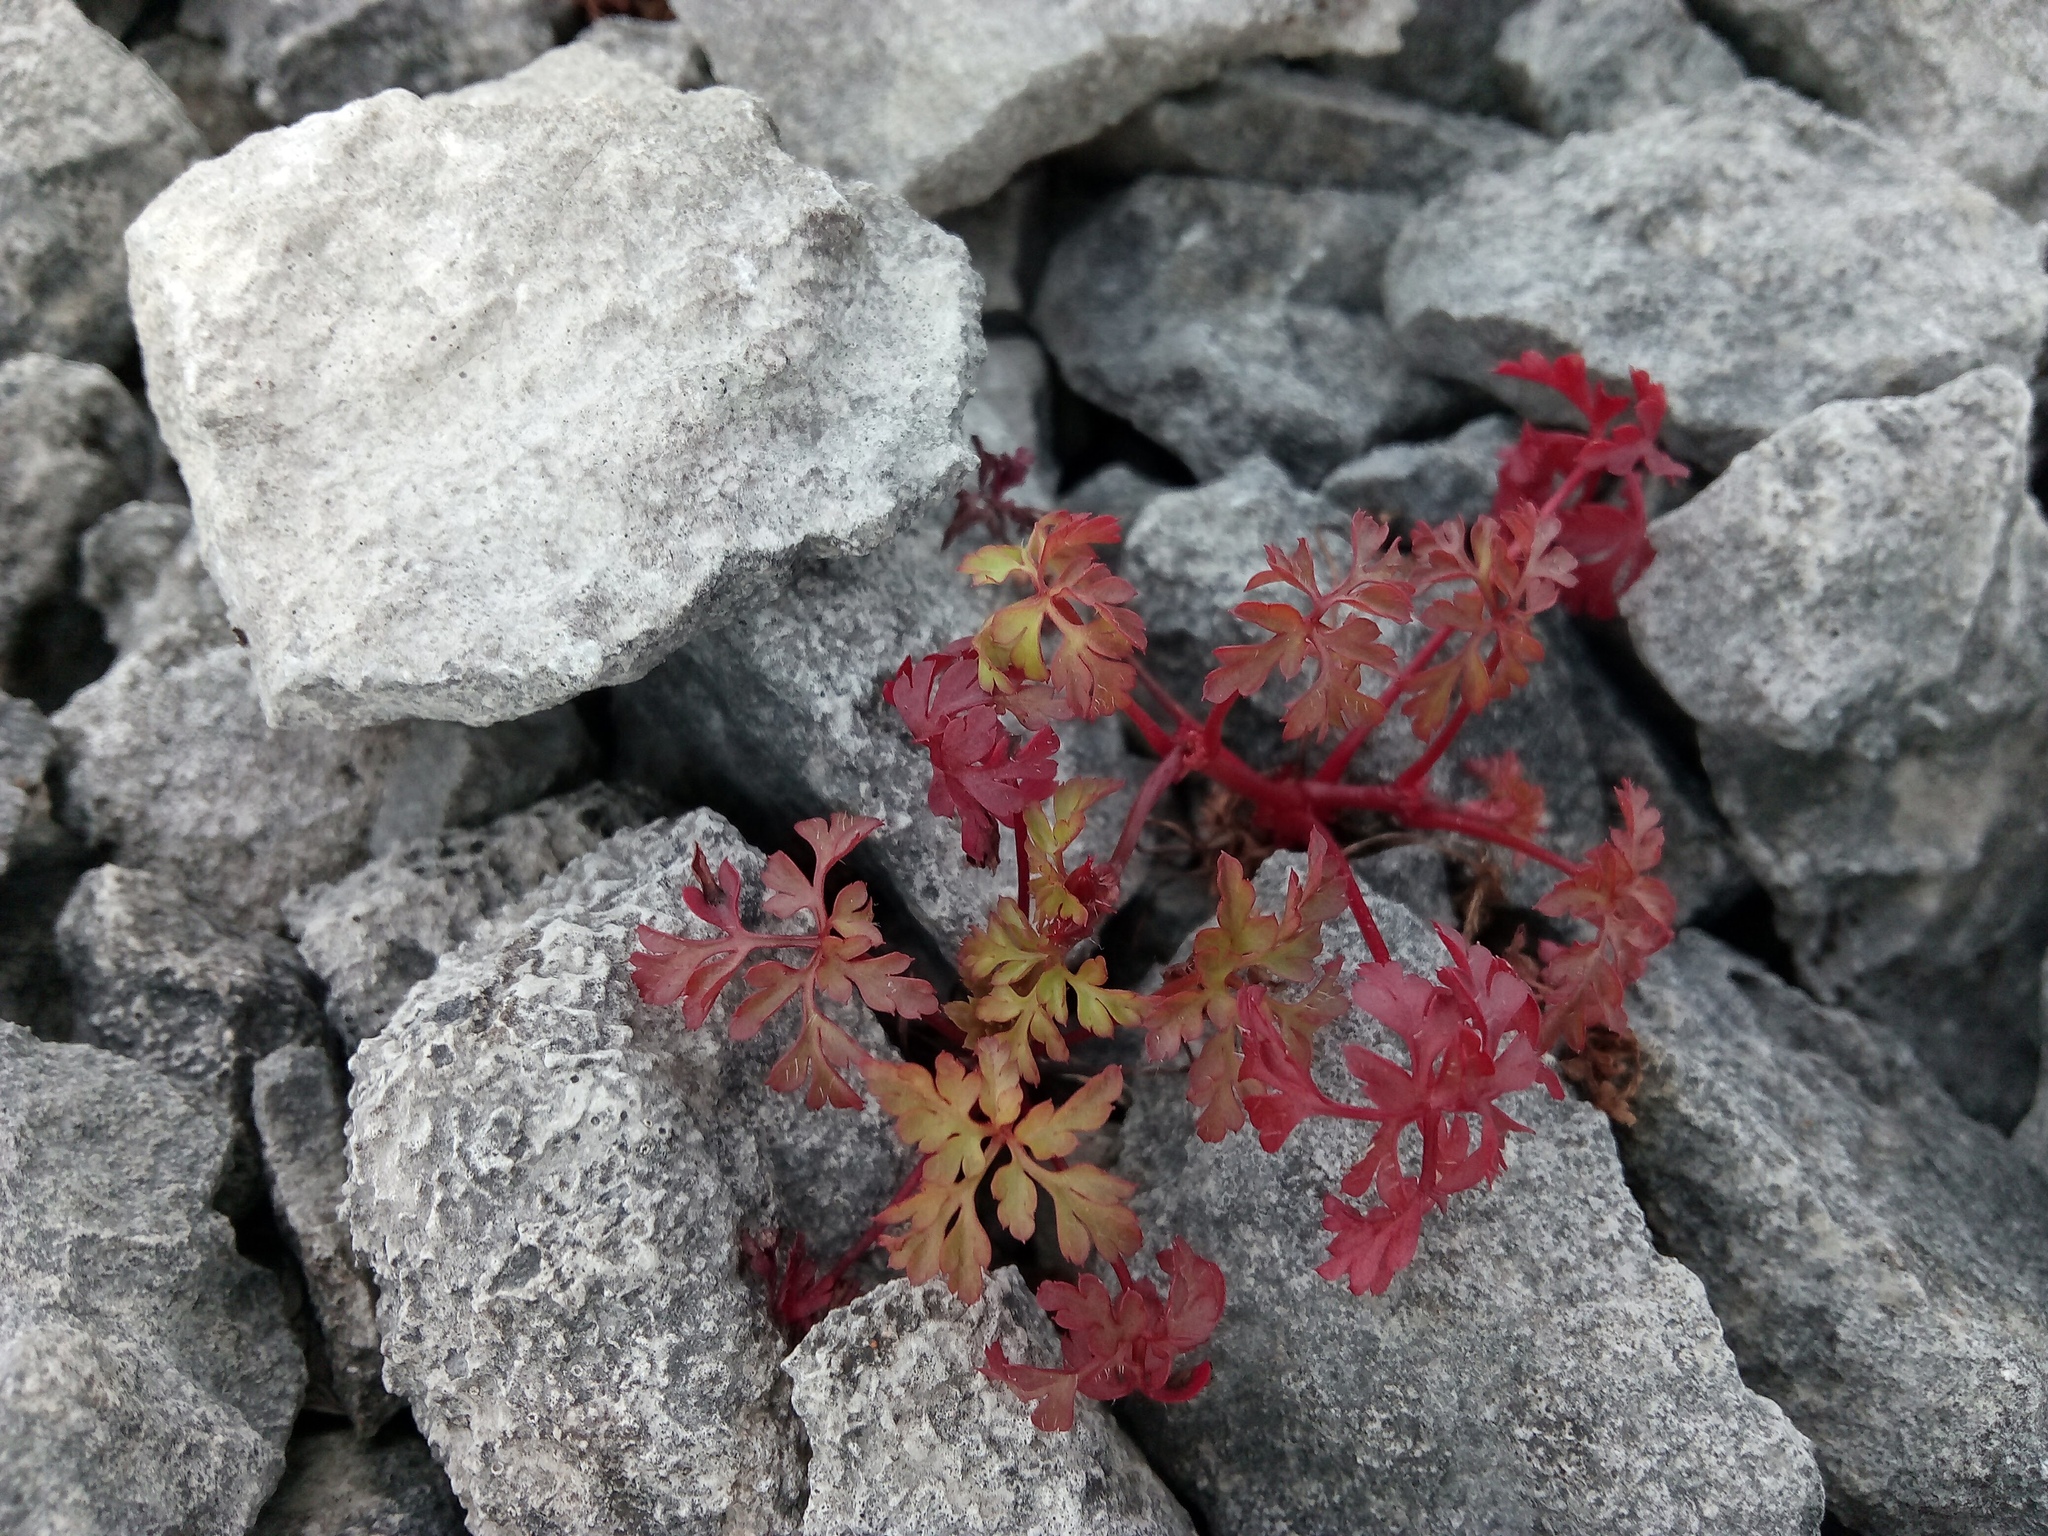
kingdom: Plantae
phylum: Tracheophyta
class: Magnoliopsida
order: Geraniales
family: Geraniaceae
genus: Geranium
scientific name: Geranium robertianum
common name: Herb-robert
